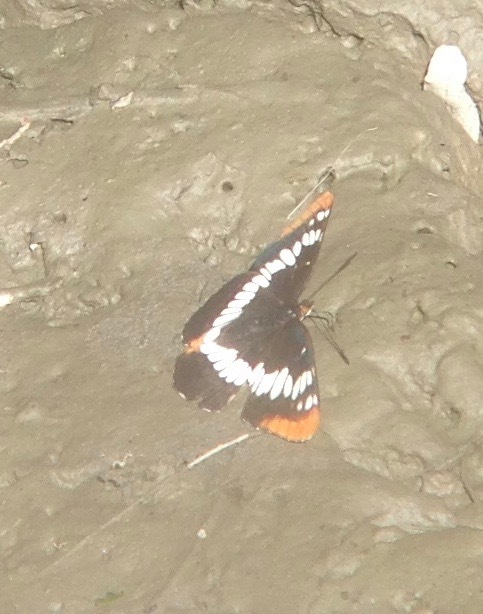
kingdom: Animalia
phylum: Arthropoda
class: Insecta
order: Lepidoptera
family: Nymphalidae
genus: Limenitis
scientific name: Limenitis lorquini
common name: Lorquin's admiral
